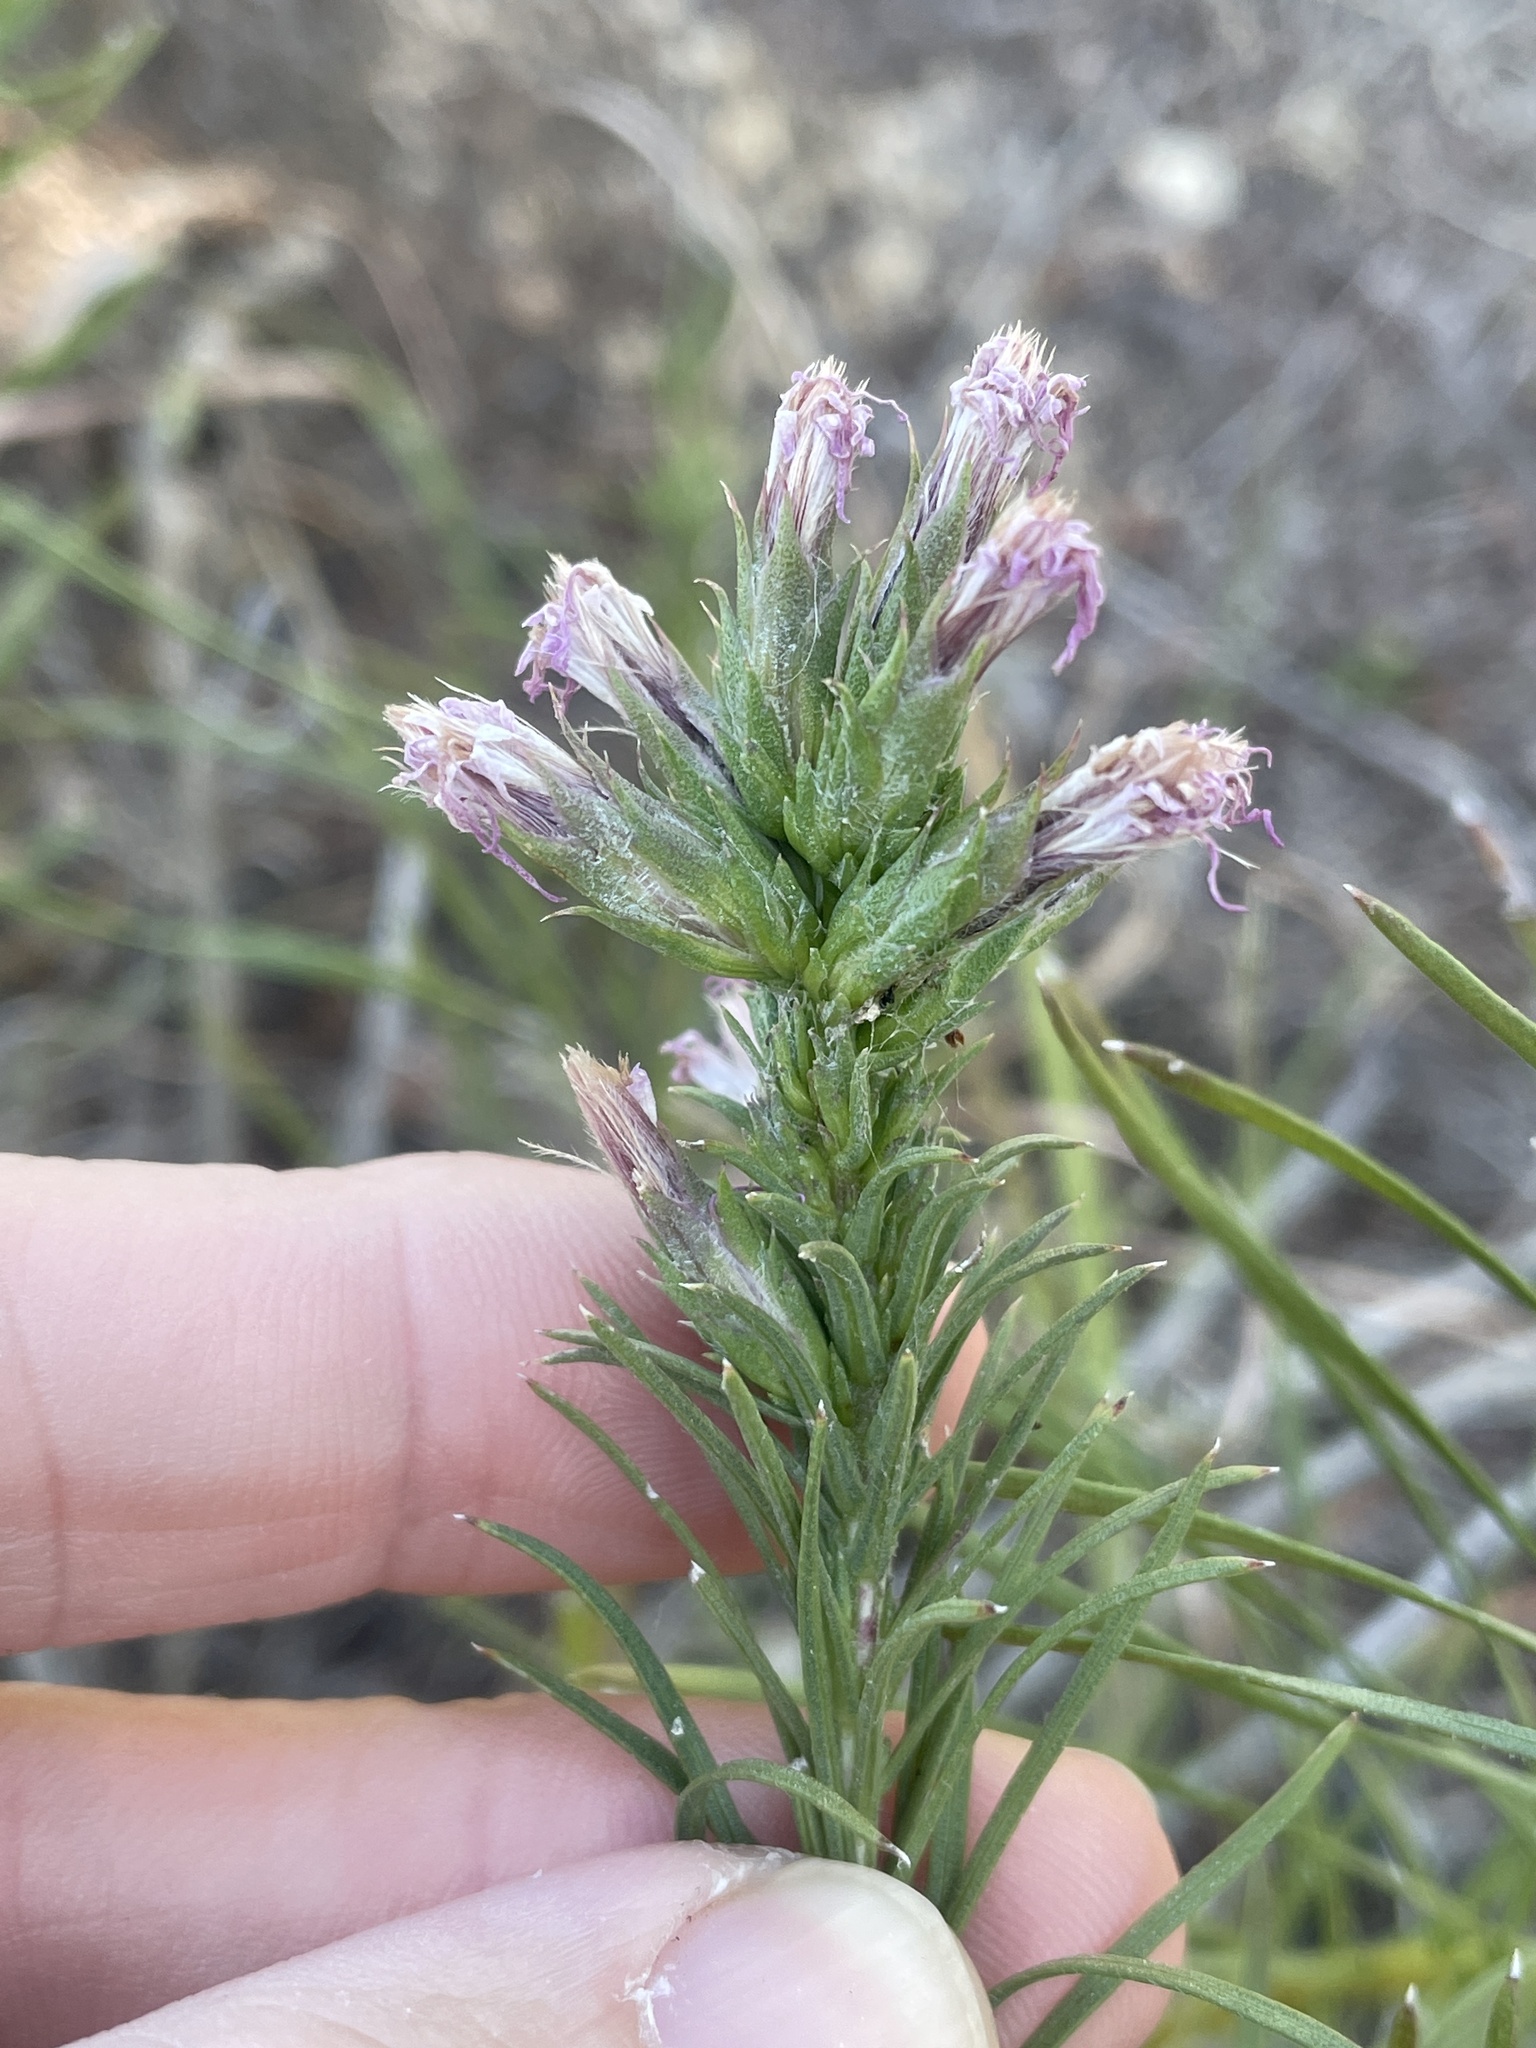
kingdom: Plantae
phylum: Tracheophyta
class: Magnoliopsida
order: Asterales
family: Asteraceae
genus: Liatris
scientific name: Liatris punctata
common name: Dotted gayfeather
